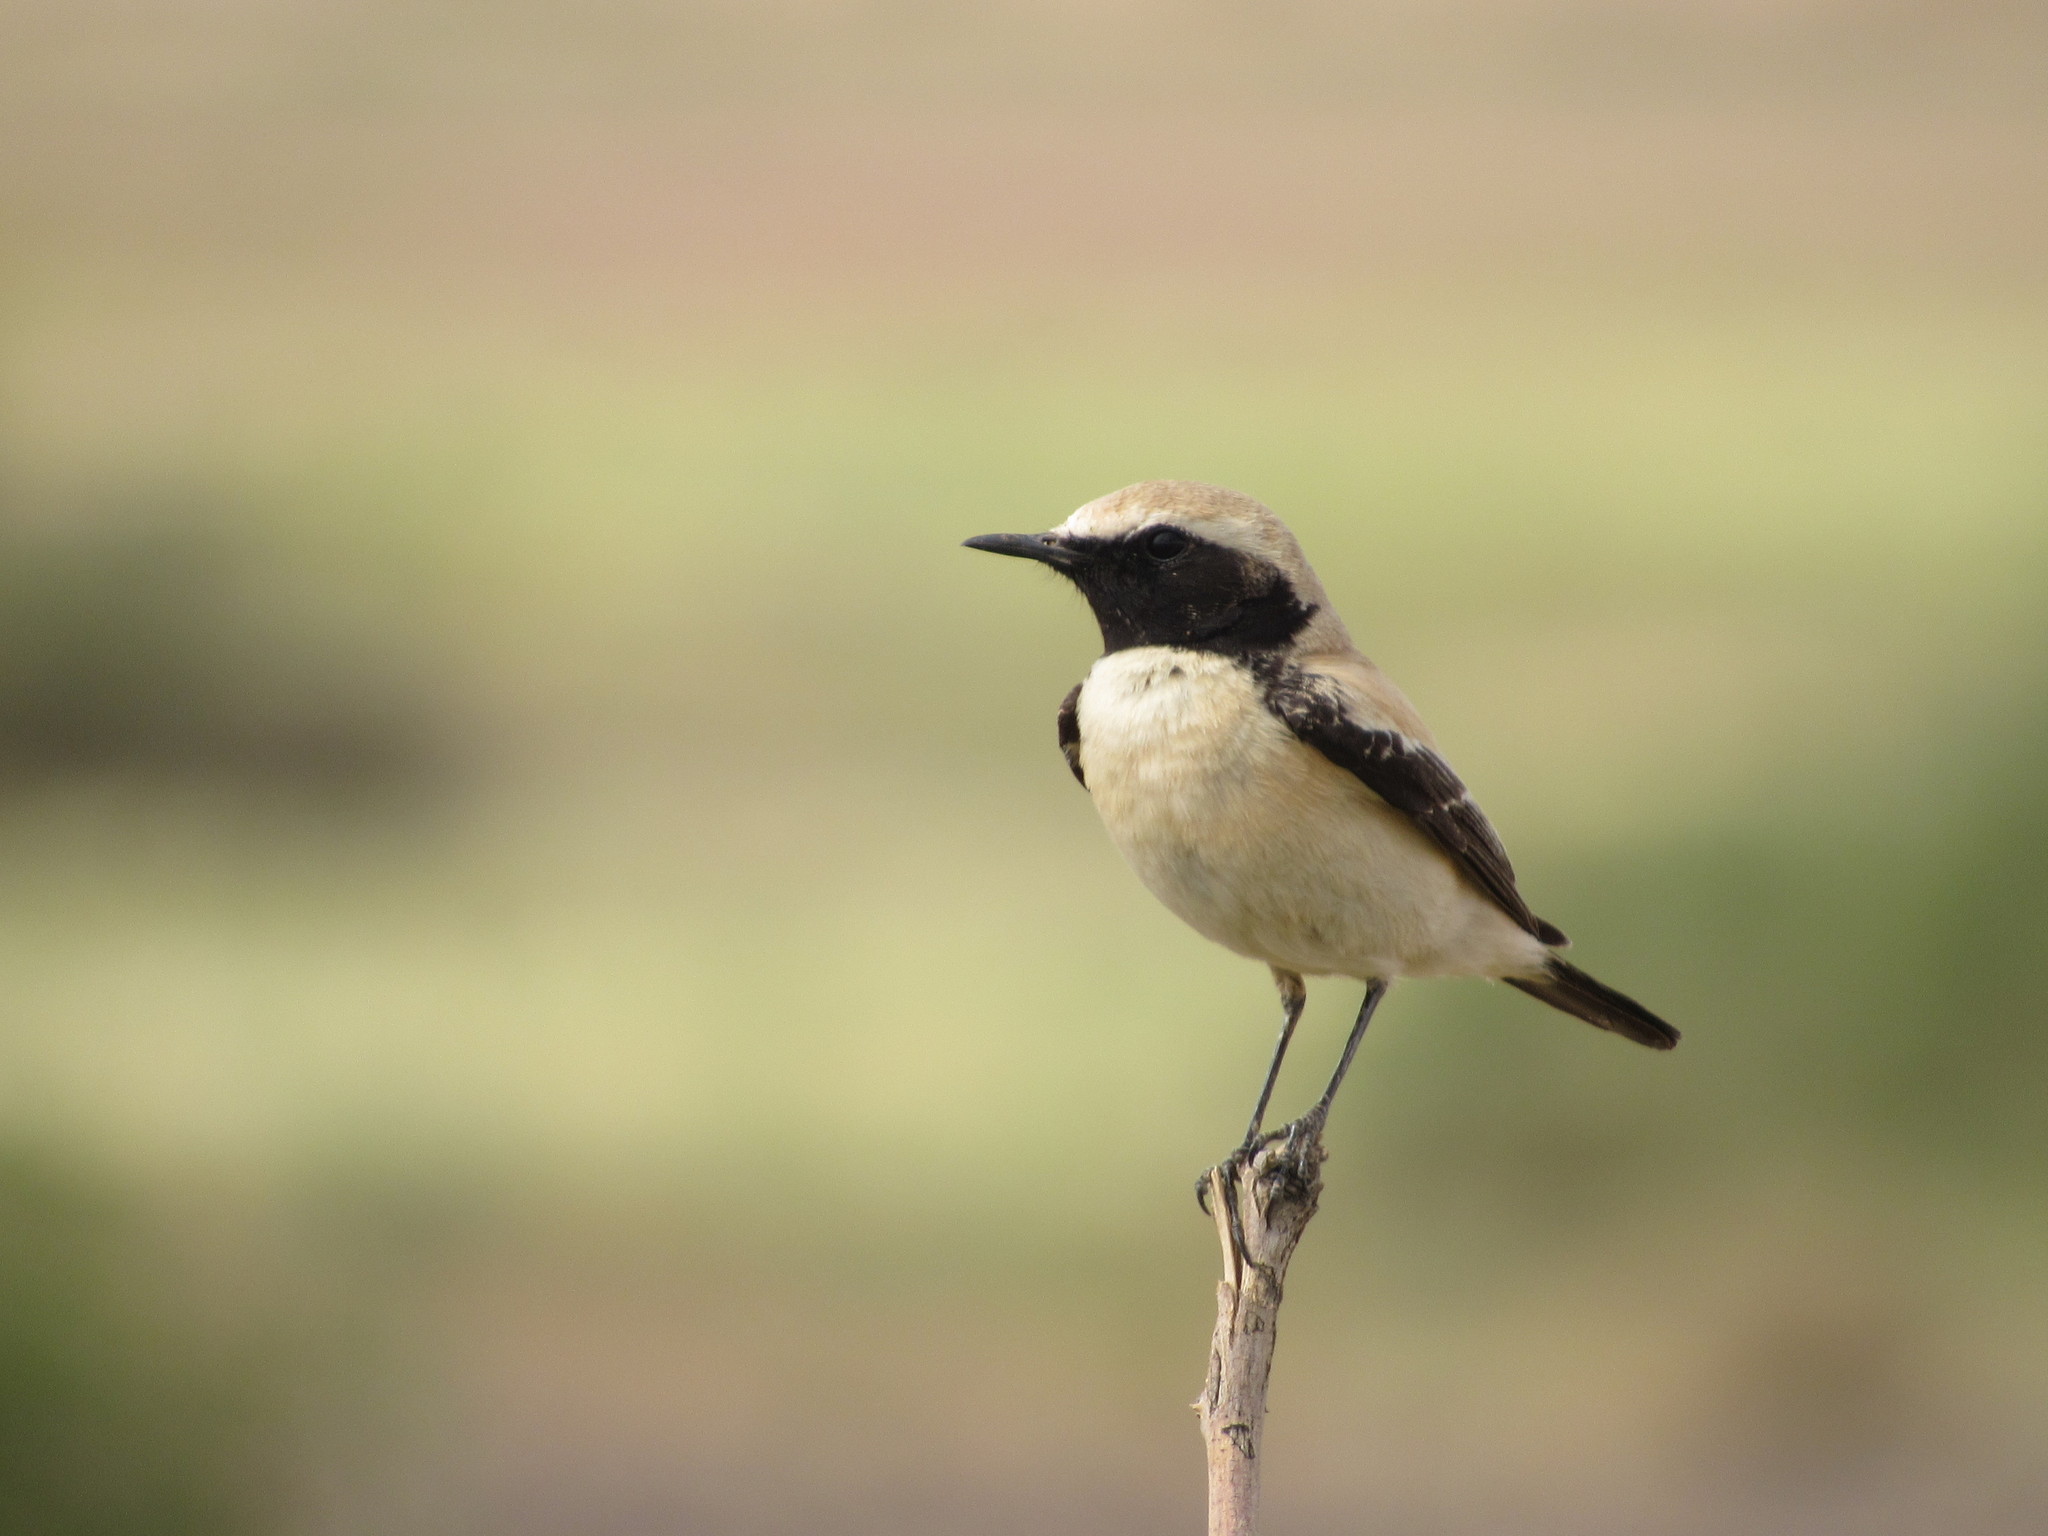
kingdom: Animalia
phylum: Chordata
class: Aves
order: Passeriformes
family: Muscicapidae
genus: Oenanthe
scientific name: Oenanthe deserti
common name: Desert wheatear
